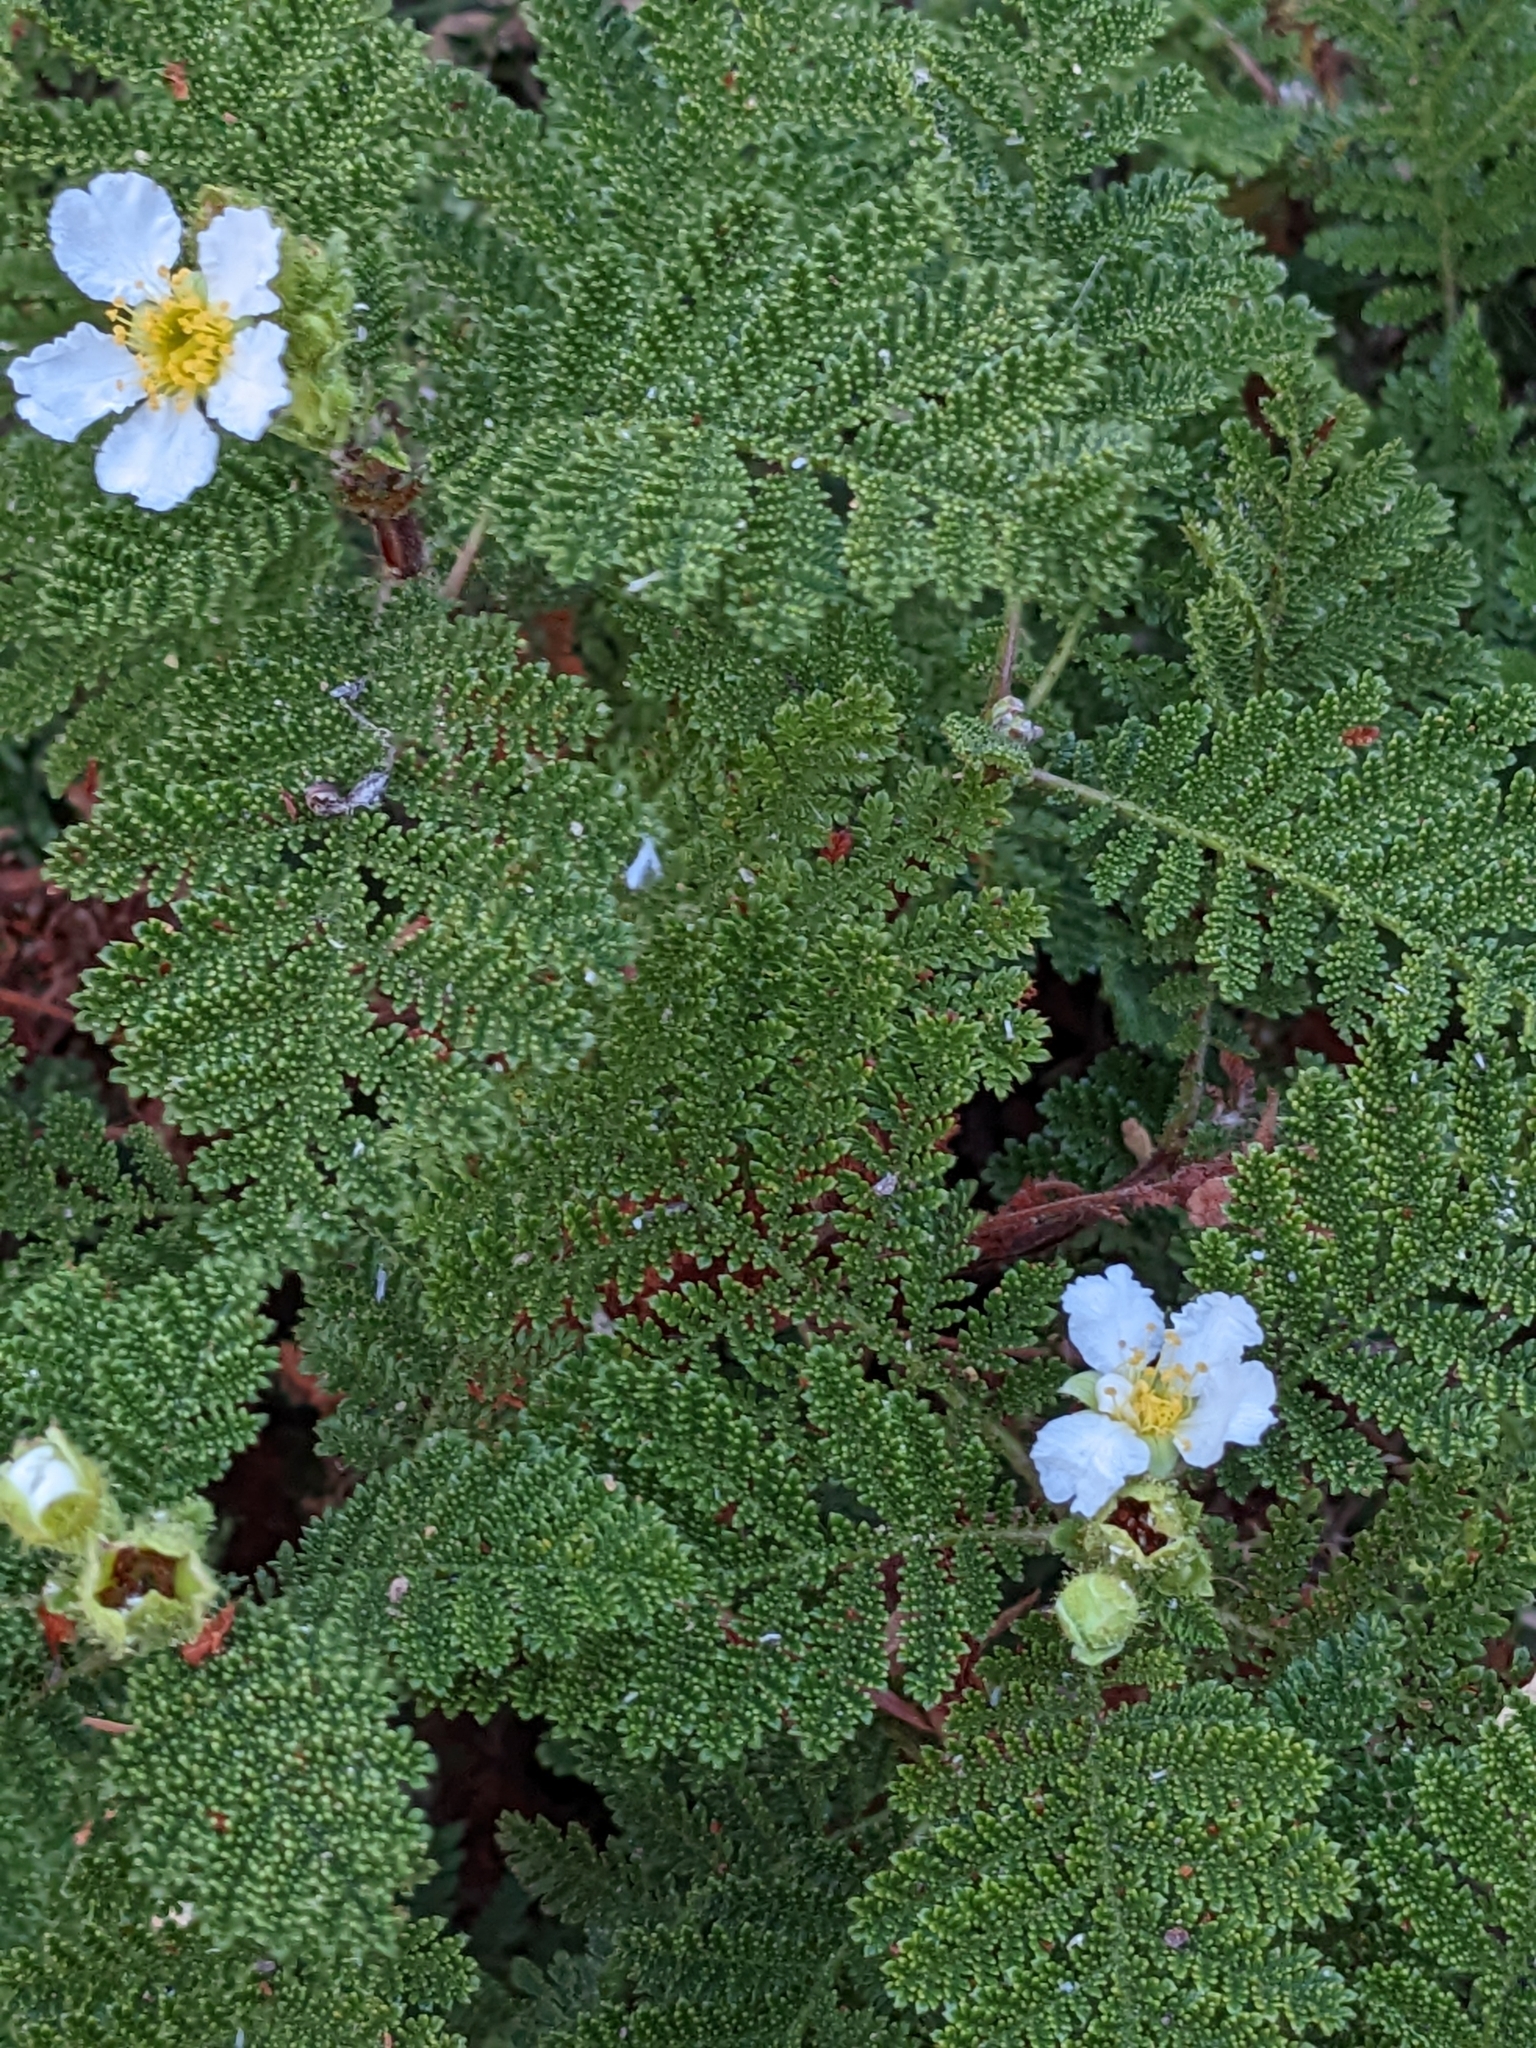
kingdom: Plantae
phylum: Tracheophyta
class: Magnoliopsida
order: Rosales
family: Rosaceae
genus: Chamaebatia
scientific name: Chamaebatia foliolosa
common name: Mountain misery
